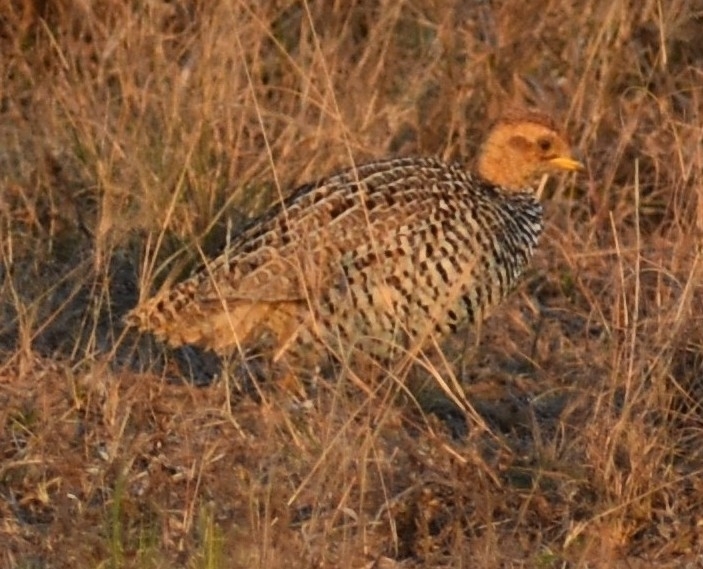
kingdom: Animalia
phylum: Chordata
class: Aves
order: Galliformes
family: Phasianidae
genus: Campocolinus
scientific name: Campocolinus coqui
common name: Coqui francolin
